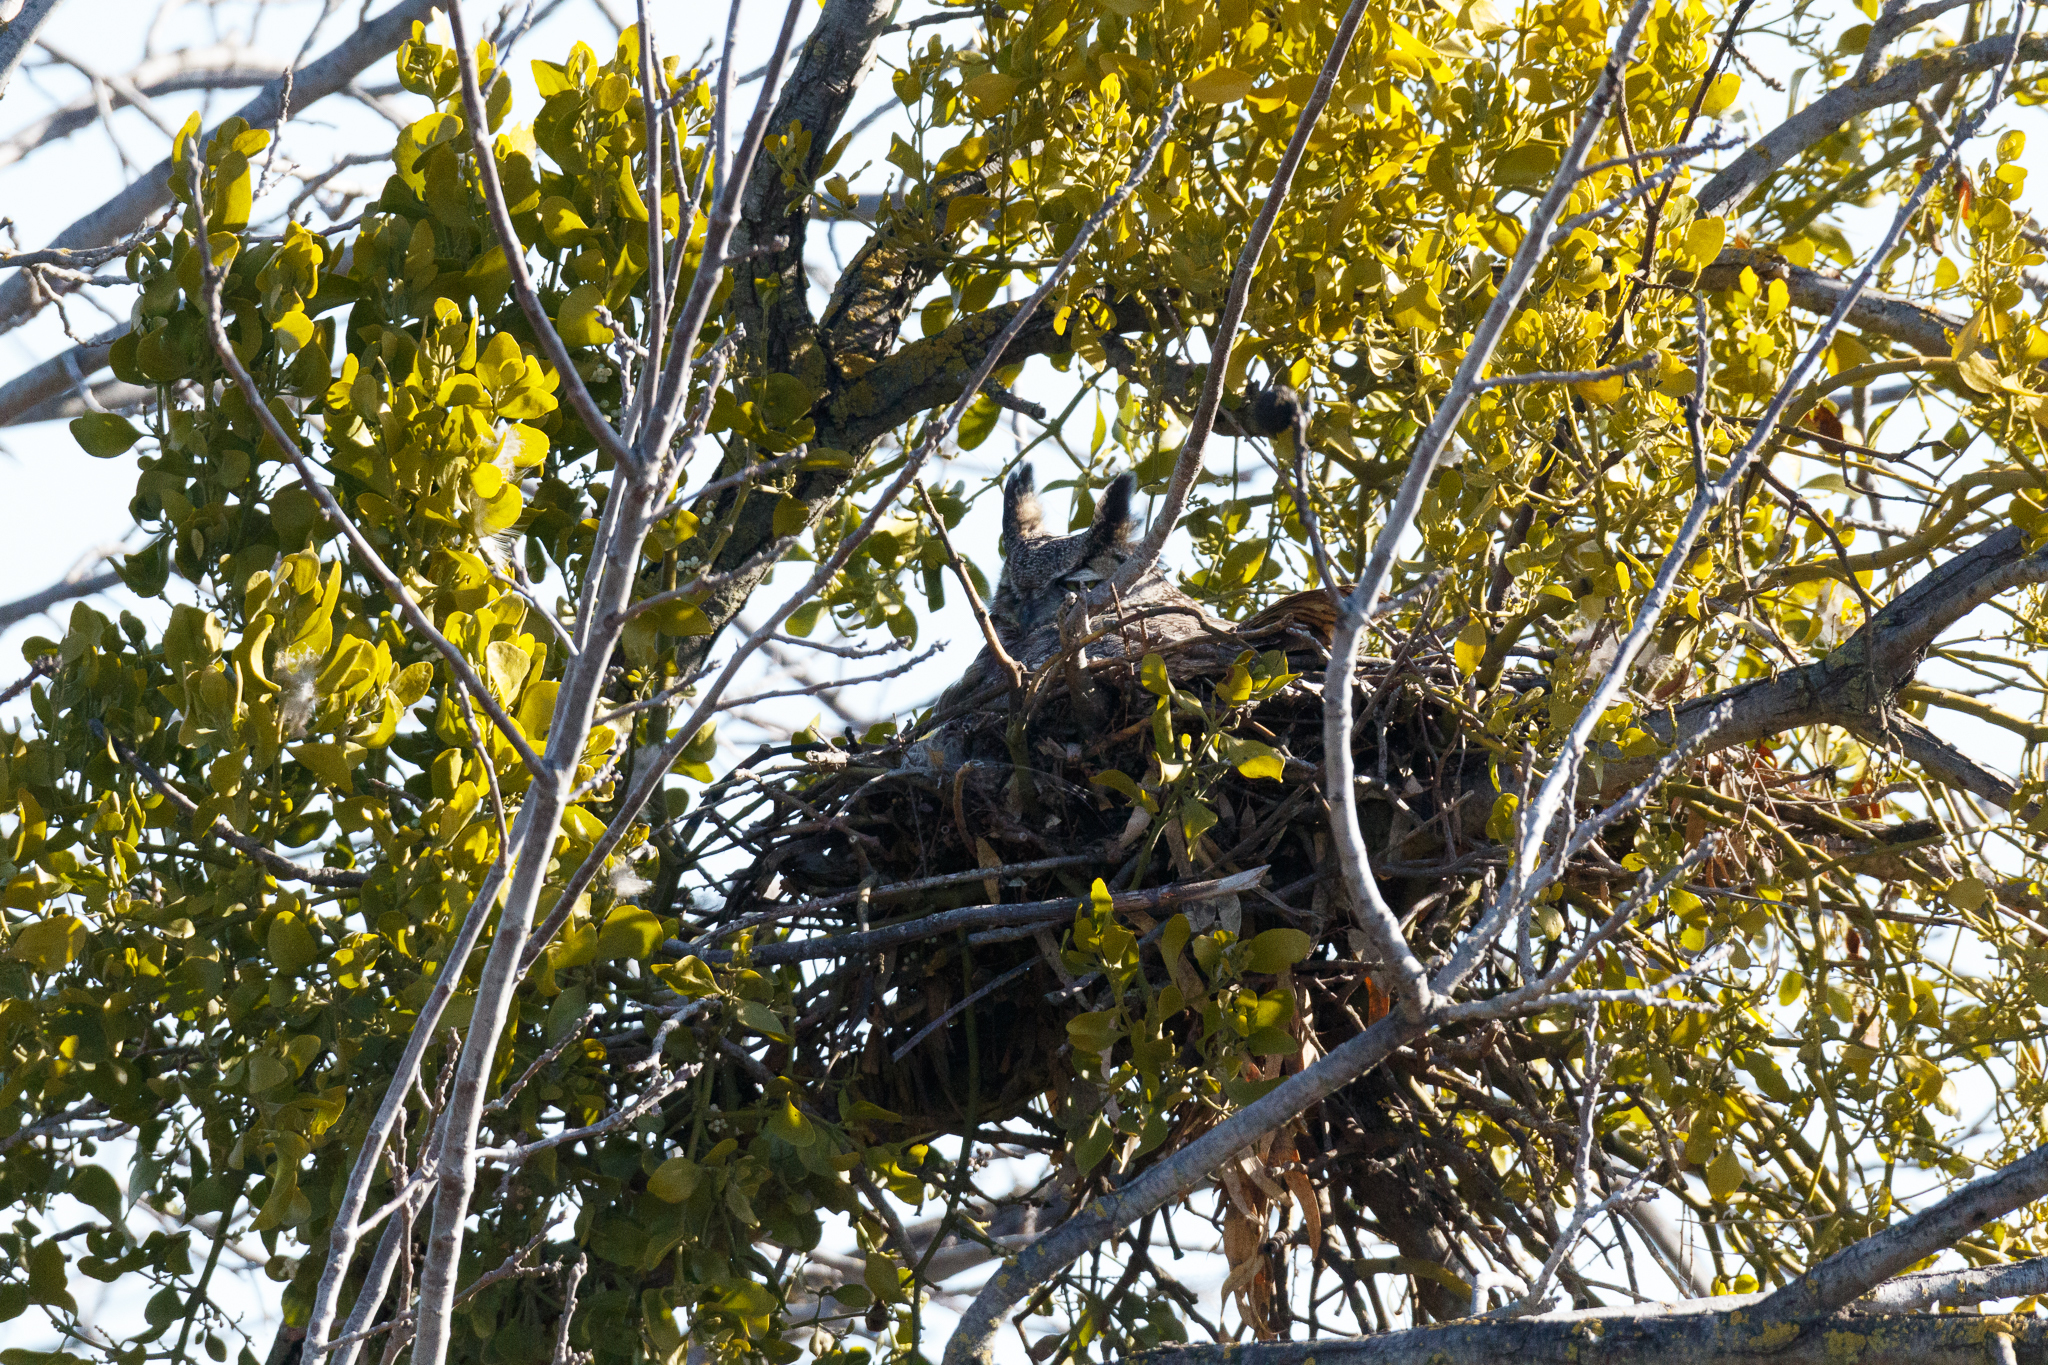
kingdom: Animalia
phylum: Chordata
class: Aves
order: Strigiformes
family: Strigidae
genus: Bubo
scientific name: Bubo virginianus
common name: Great horned owl
